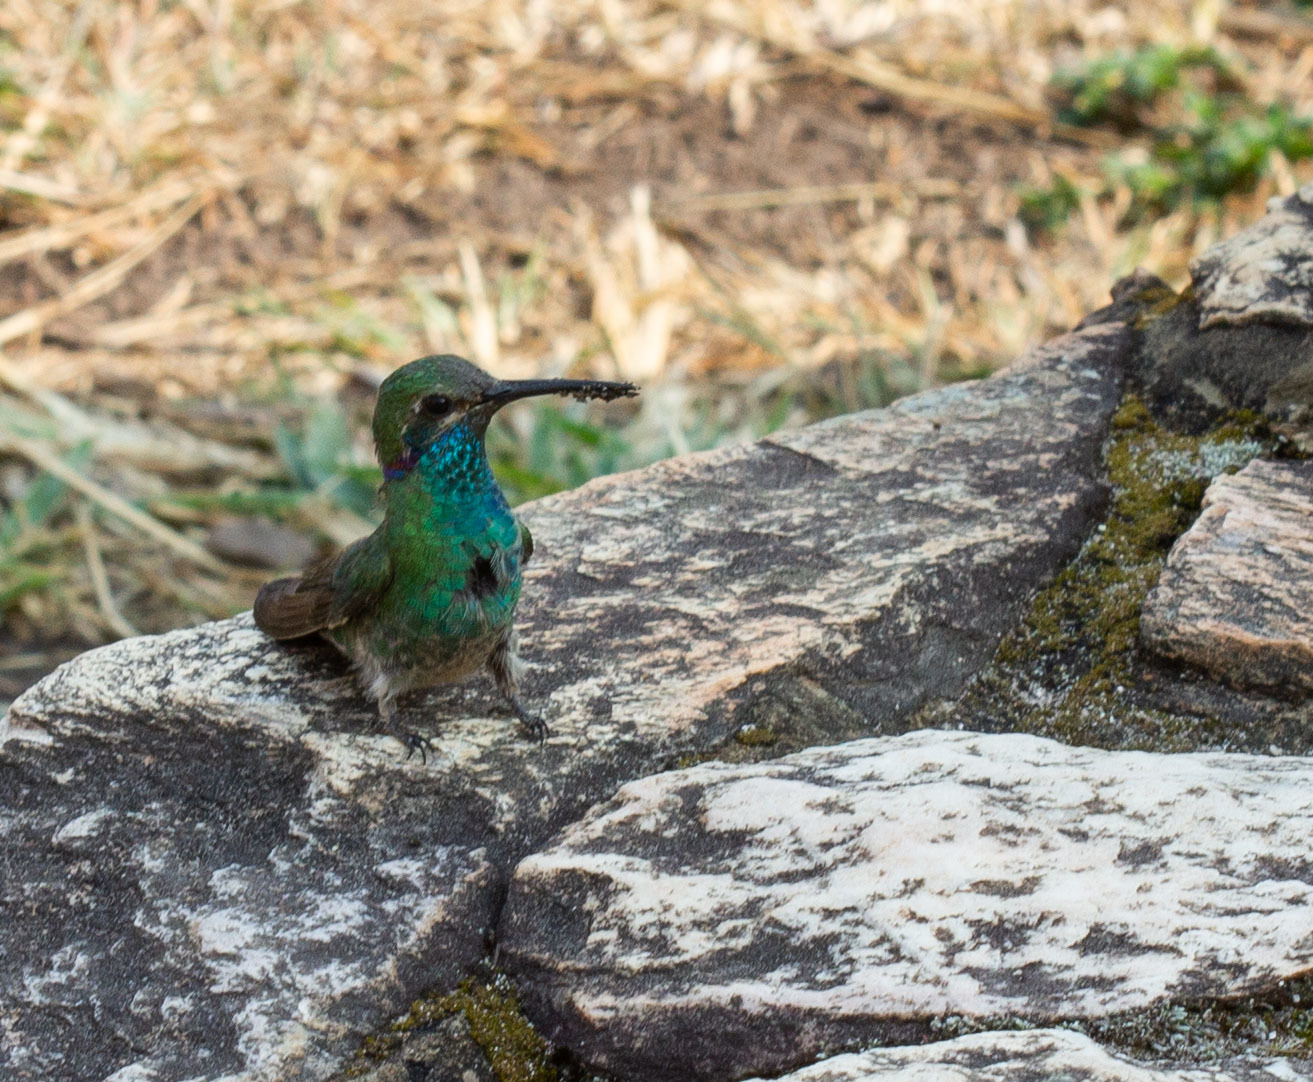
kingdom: Animalia
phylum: Chordata
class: Aves
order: Apodiformes
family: Trochilidae
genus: Colibri
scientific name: Colibri serrirostris
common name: White-vented violetear
